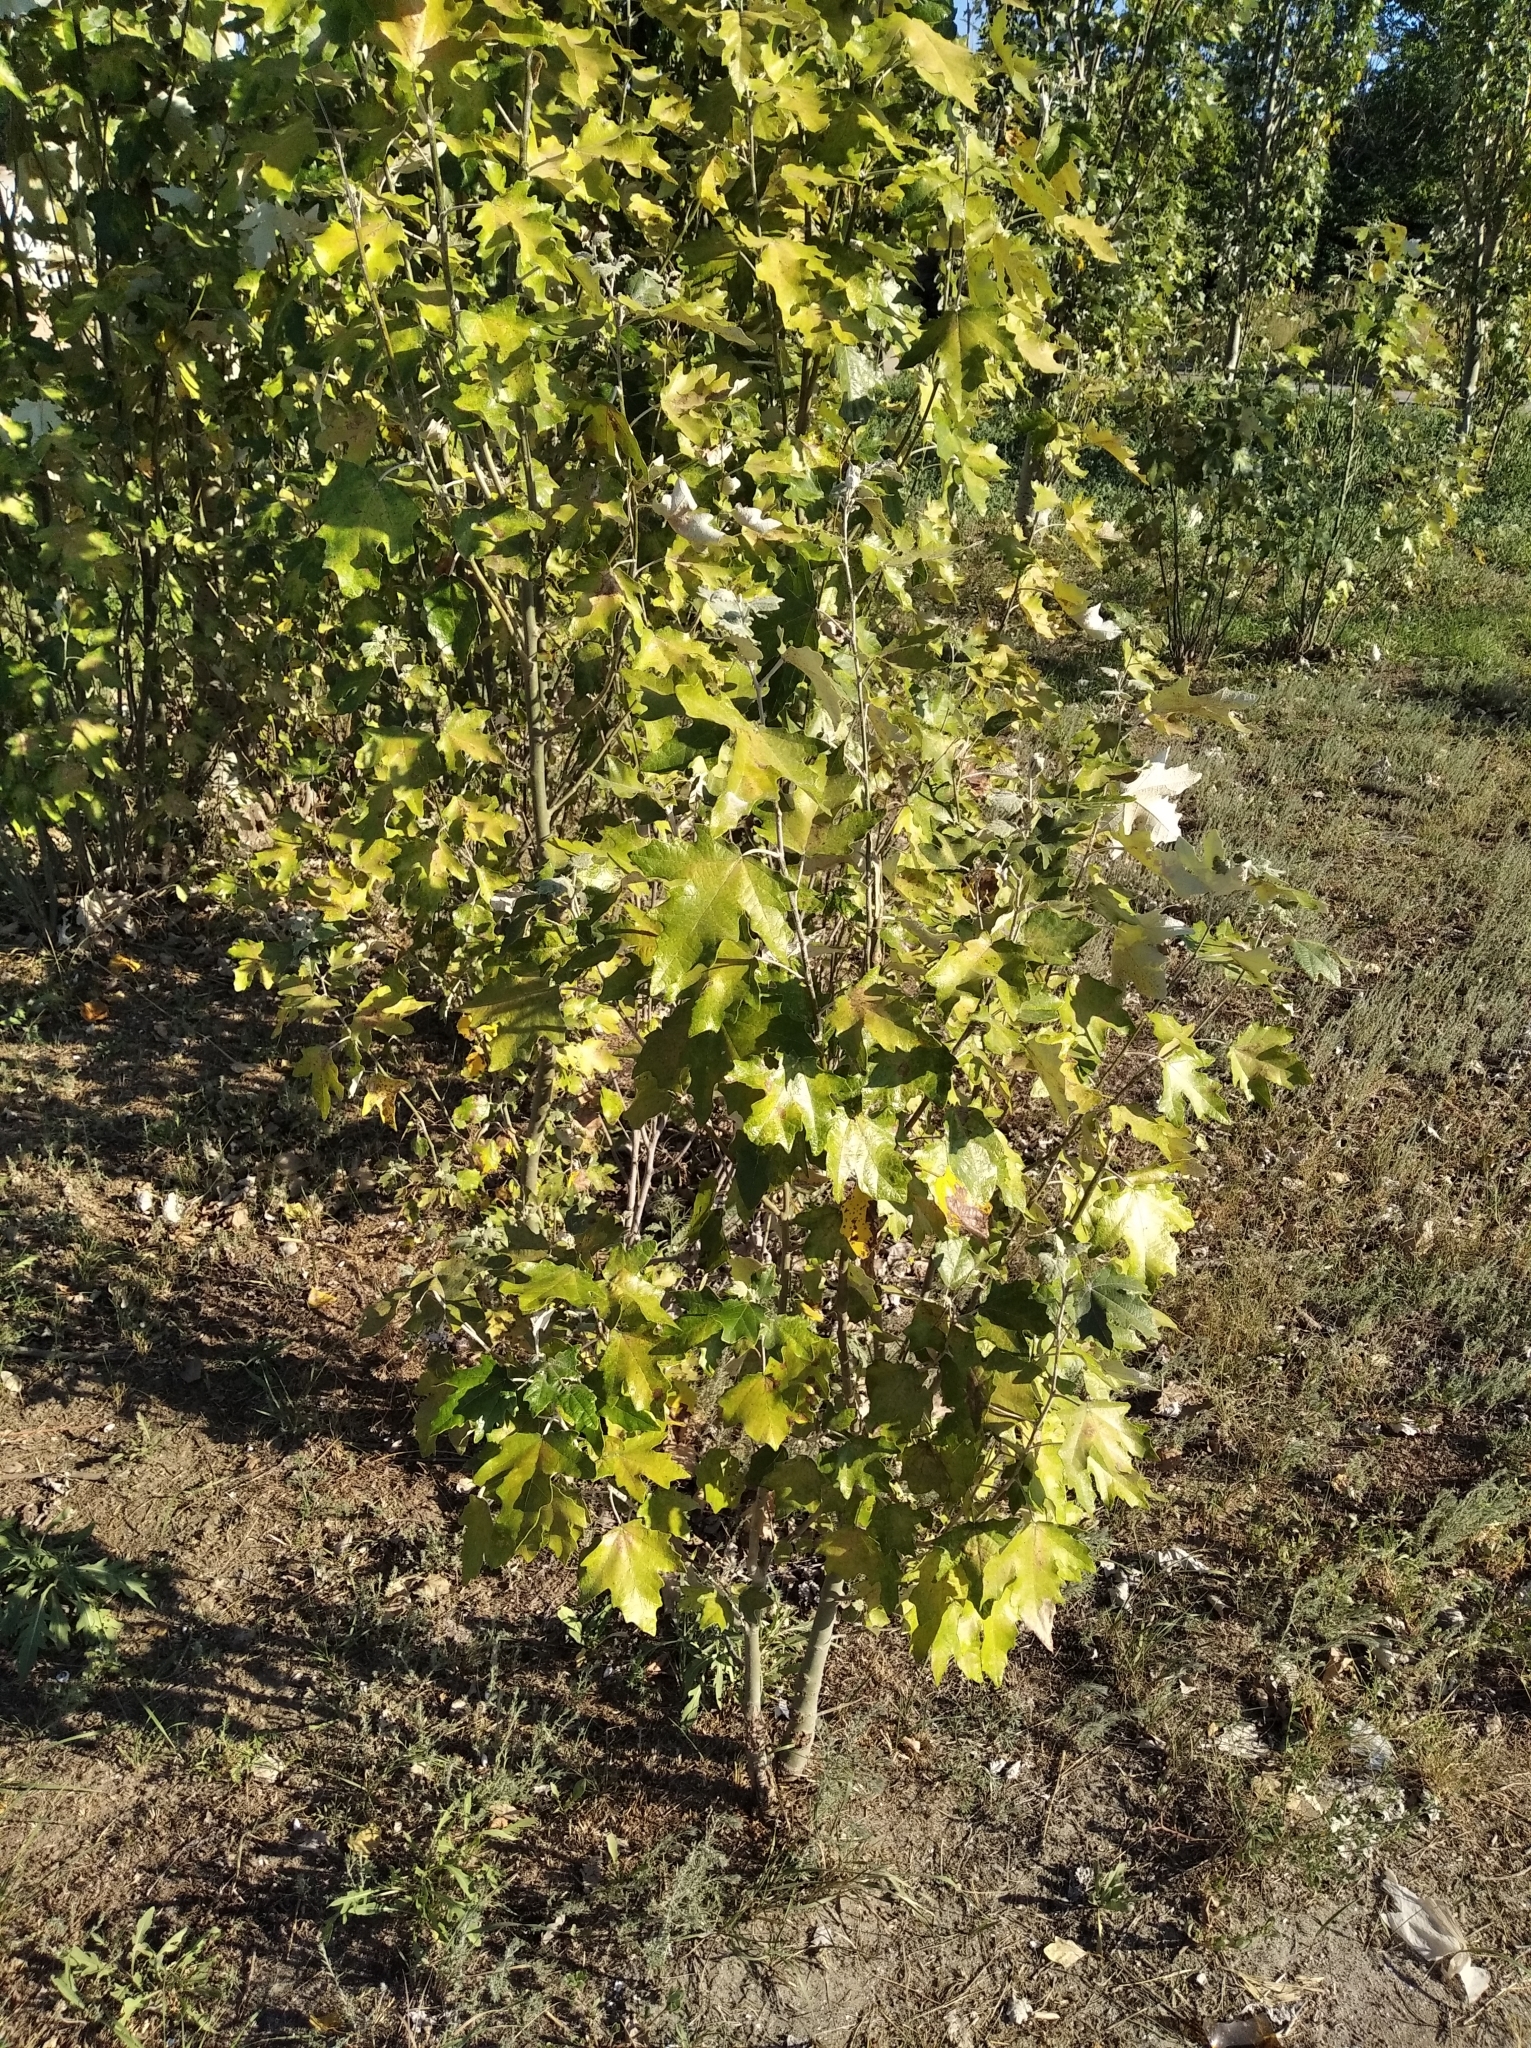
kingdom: Plantae
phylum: Tracheophyta
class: Magnoliopsida
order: Malpighiales
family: Salicaceae
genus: Populus
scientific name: Populus alba
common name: White poplar
